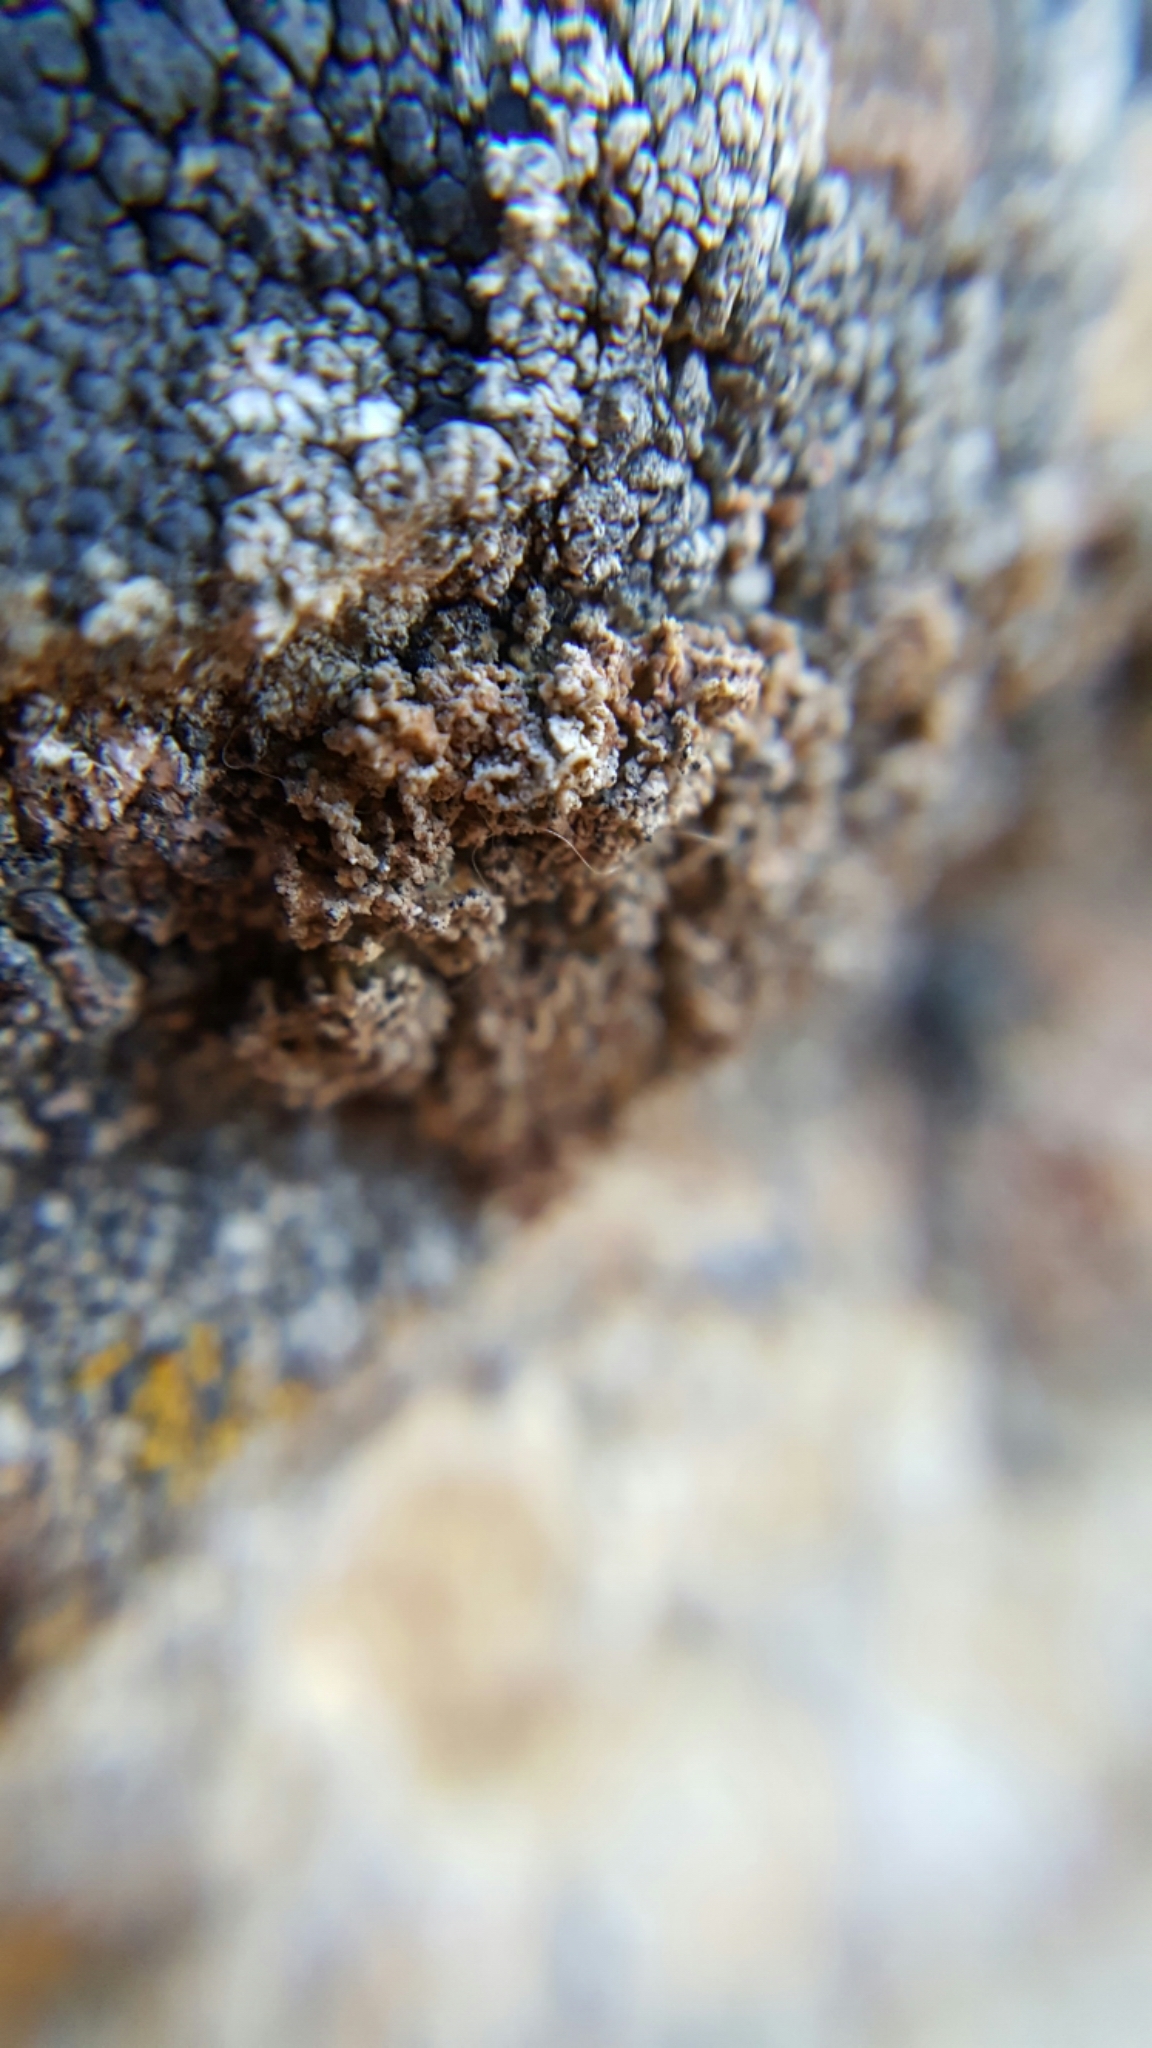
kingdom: Fungi
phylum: Ascomycota
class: Lecanoromycetes
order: Teloschistales
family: Teloschistaceae
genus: Xanthaptychia
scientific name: Xanthaptychia contortuplicata
